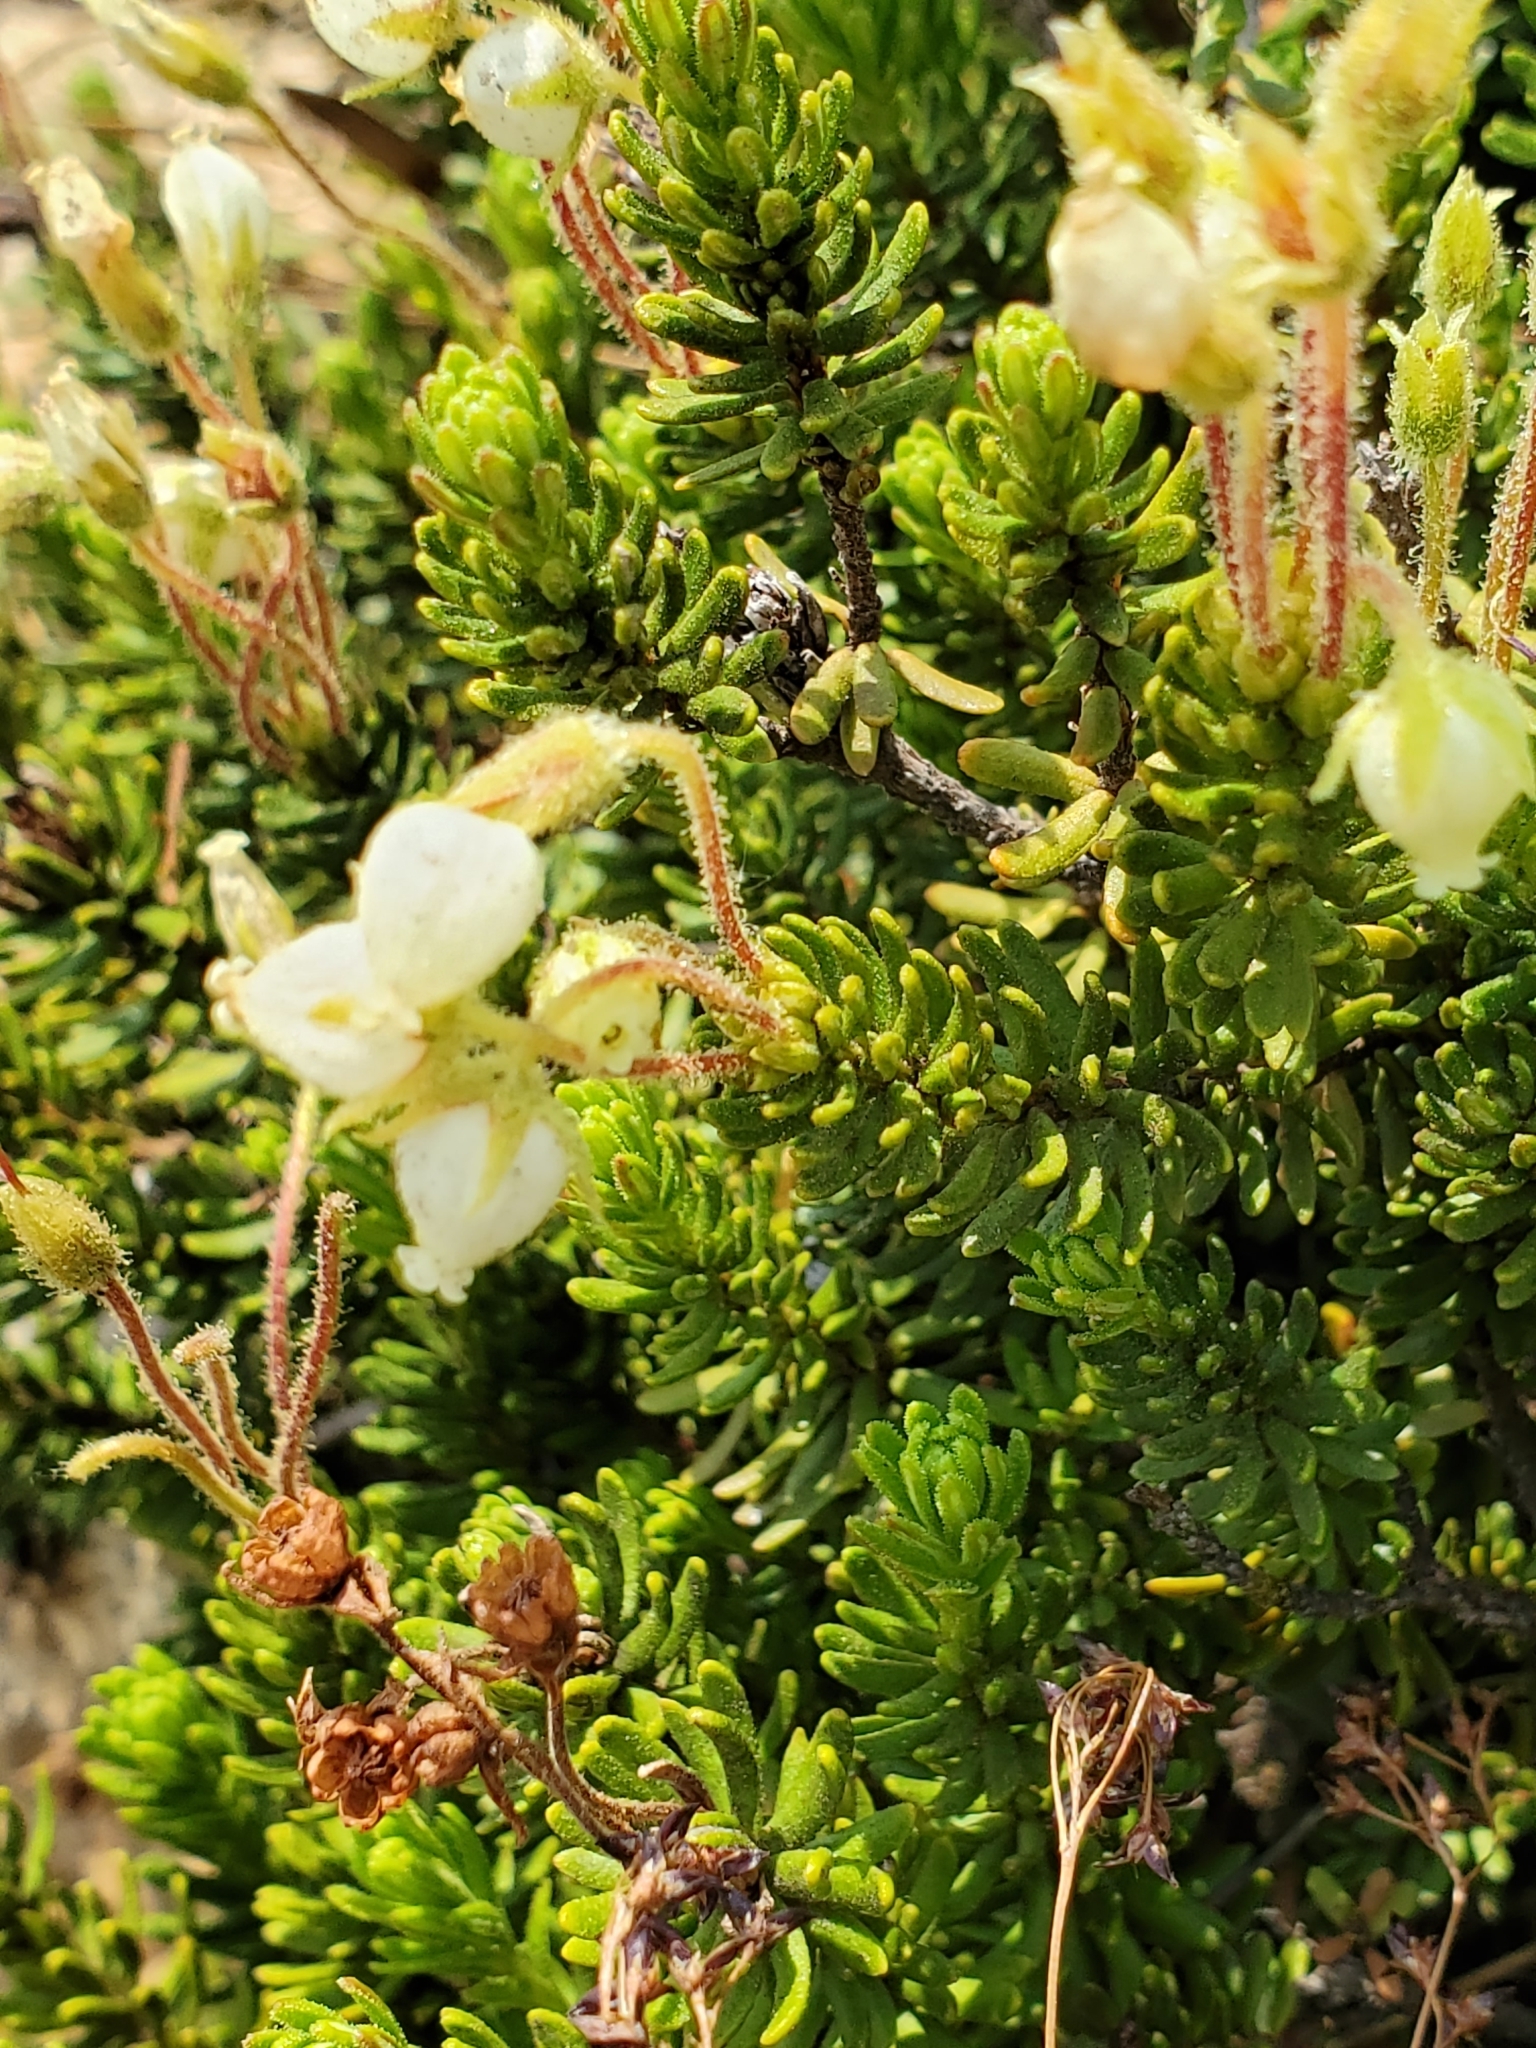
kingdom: Plantae
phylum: Tracheophyta
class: Magnoliopsida
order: Ericales
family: Ericaceae
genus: Phyllodoce
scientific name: Phyllodoce glanduliflora
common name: Cream mountain heather
